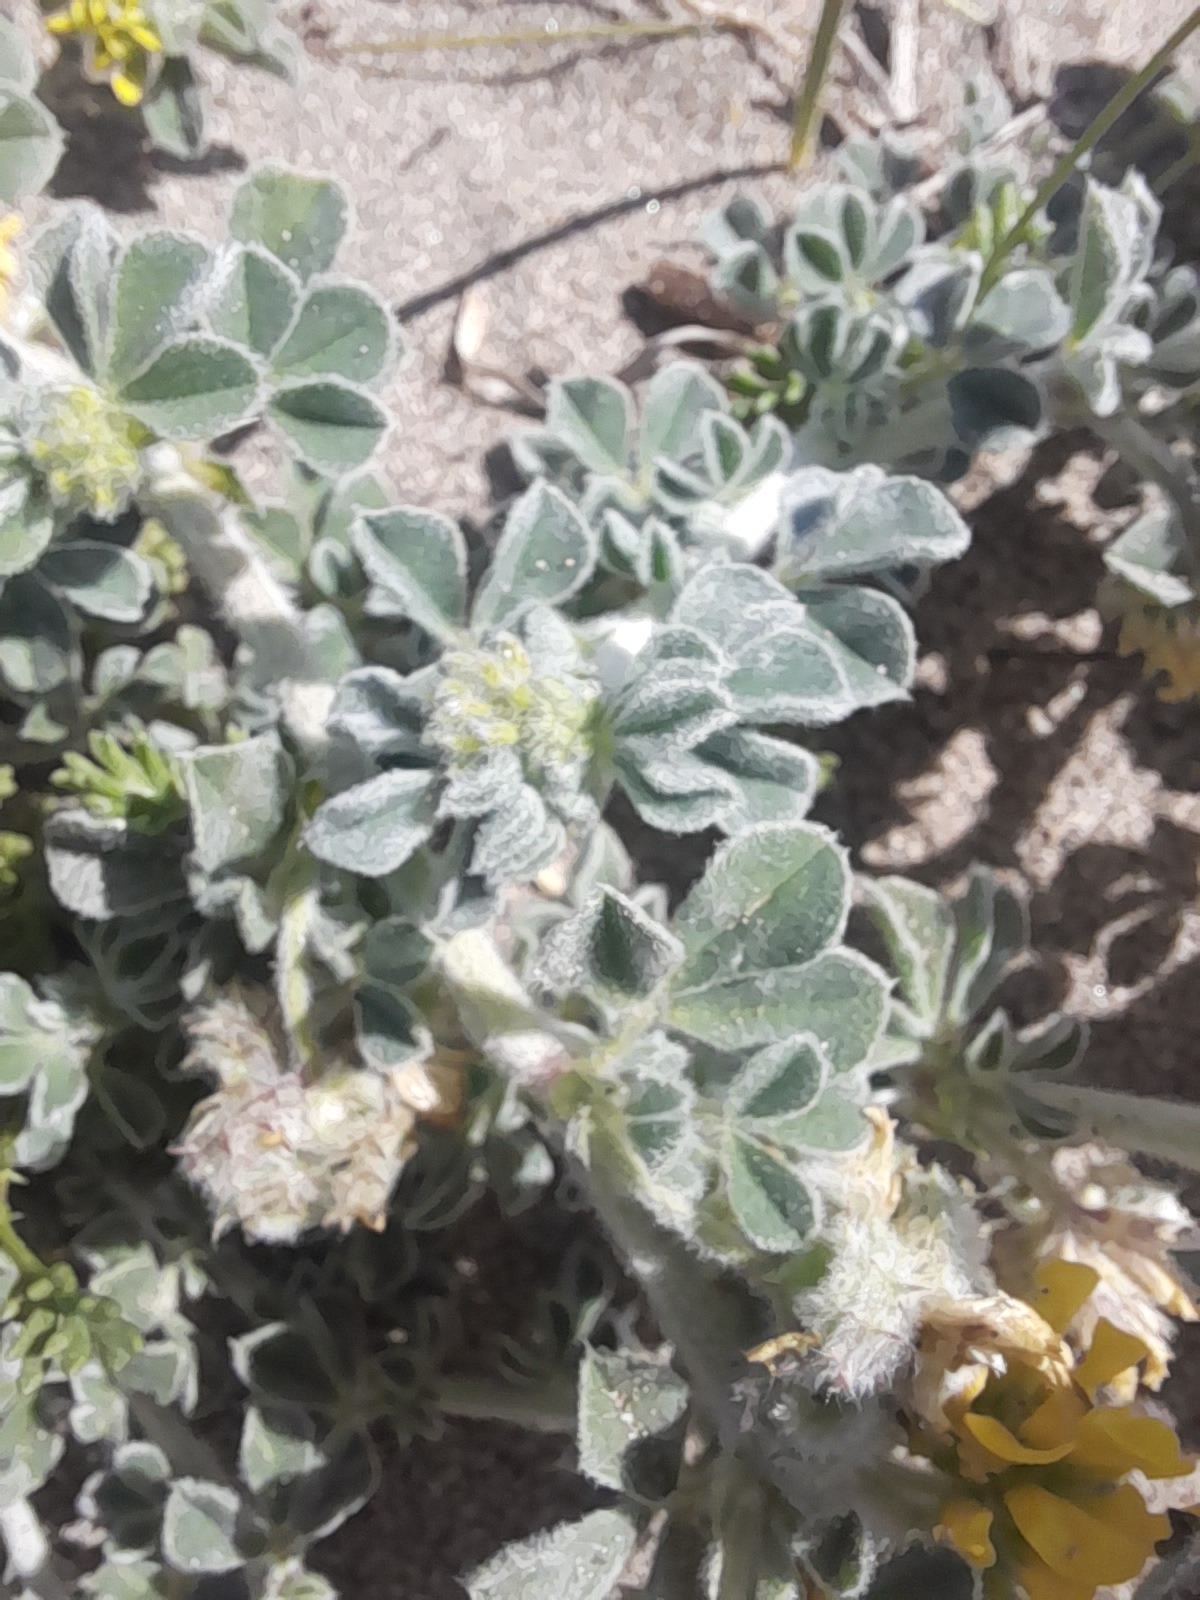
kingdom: Plantae
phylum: Tracheophyta
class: Magnoliopsida
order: Fabales
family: Fabaceae
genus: Medicago
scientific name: Medicago marina
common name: Sea medick
